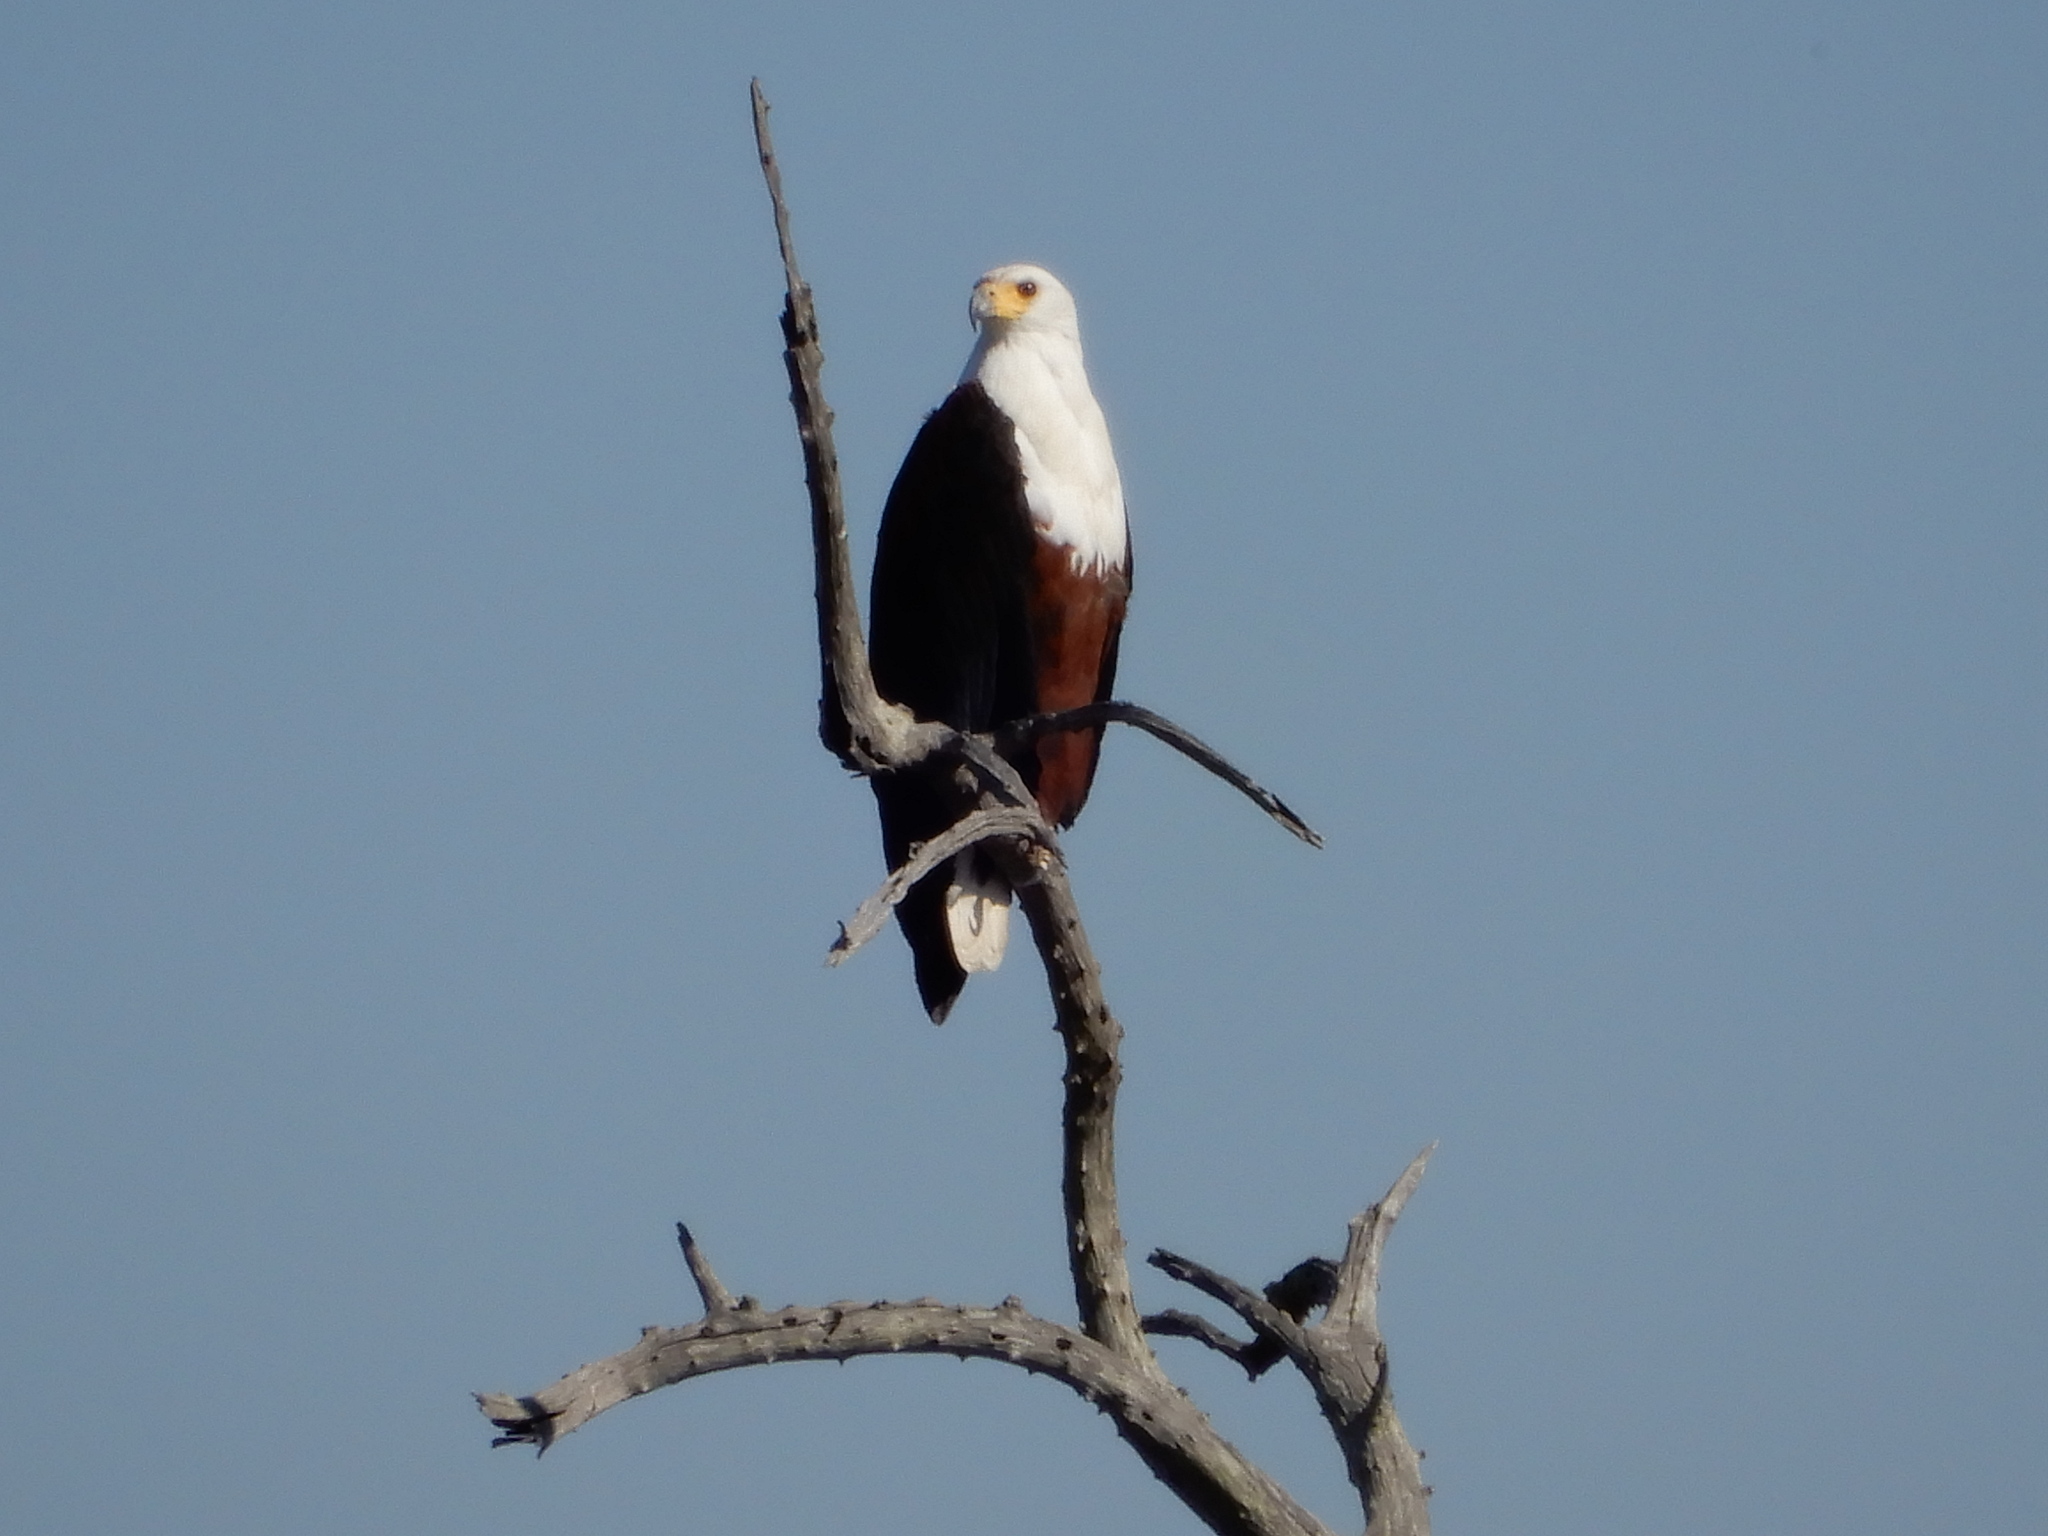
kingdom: Animalia
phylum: Chordata
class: Aves
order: Accipitriformes
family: Accipitridae
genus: Haliaeetus
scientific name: Haliaeetus vocifer
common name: African fish eagle
